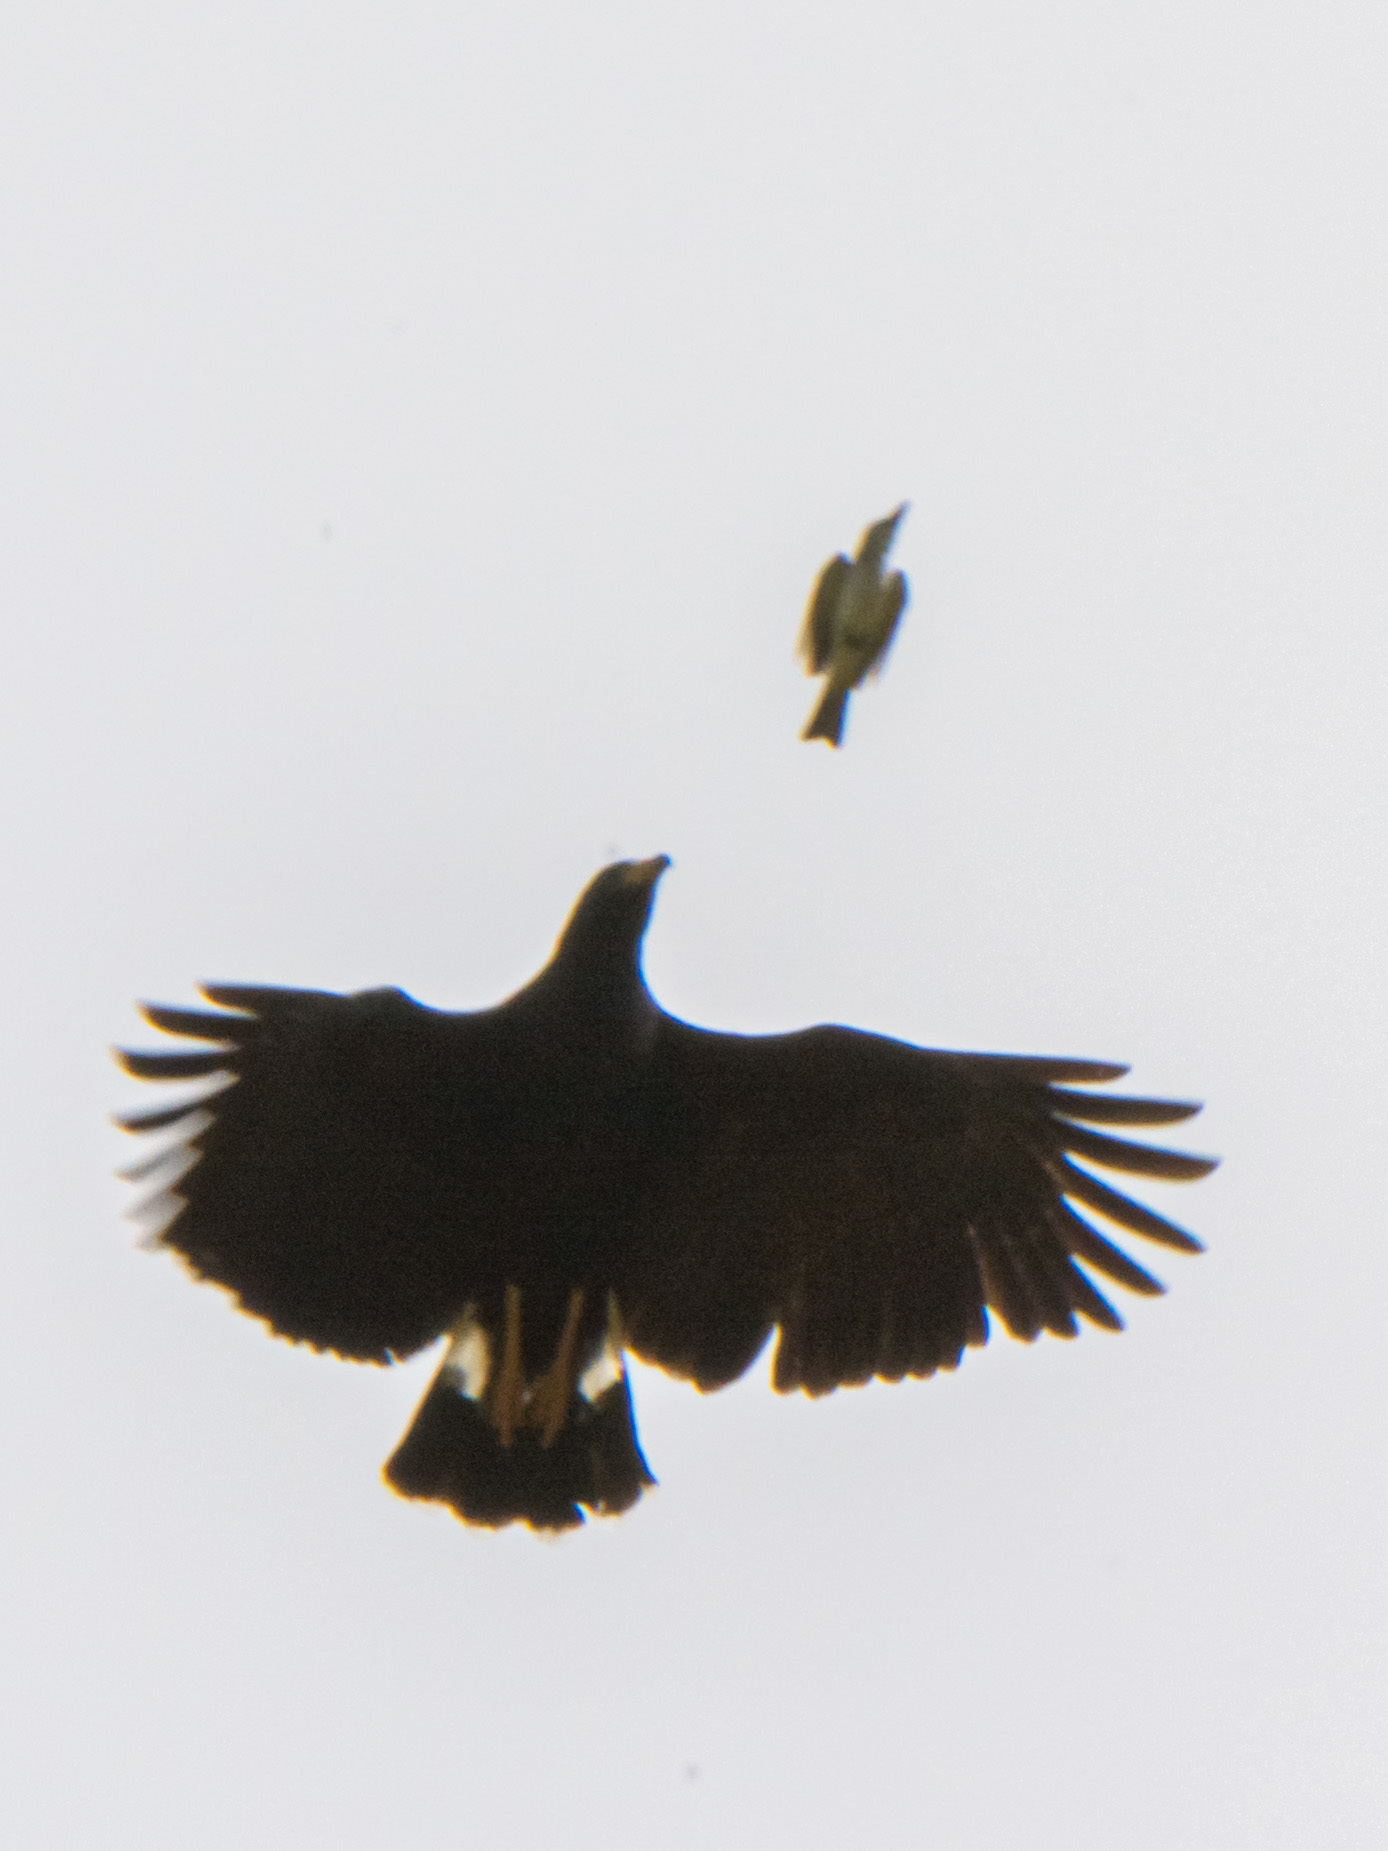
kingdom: Animalia
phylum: Chordata
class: Aves
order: Accipitriformes
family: Accipitridae
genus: Buteogallus
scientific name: Buteogallus anthracinus
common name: Common black hawk
